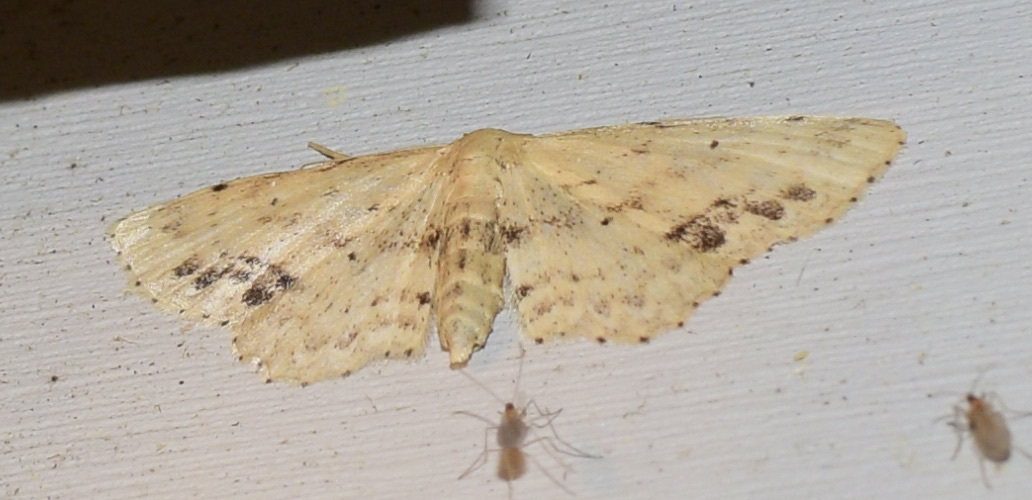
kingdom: Animalia
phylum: Arthropoda
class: Insecta
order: Lepidoptera
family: Geometridae
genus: Idaea
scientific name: Idaea dimidiata
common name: Single-dotted wave
